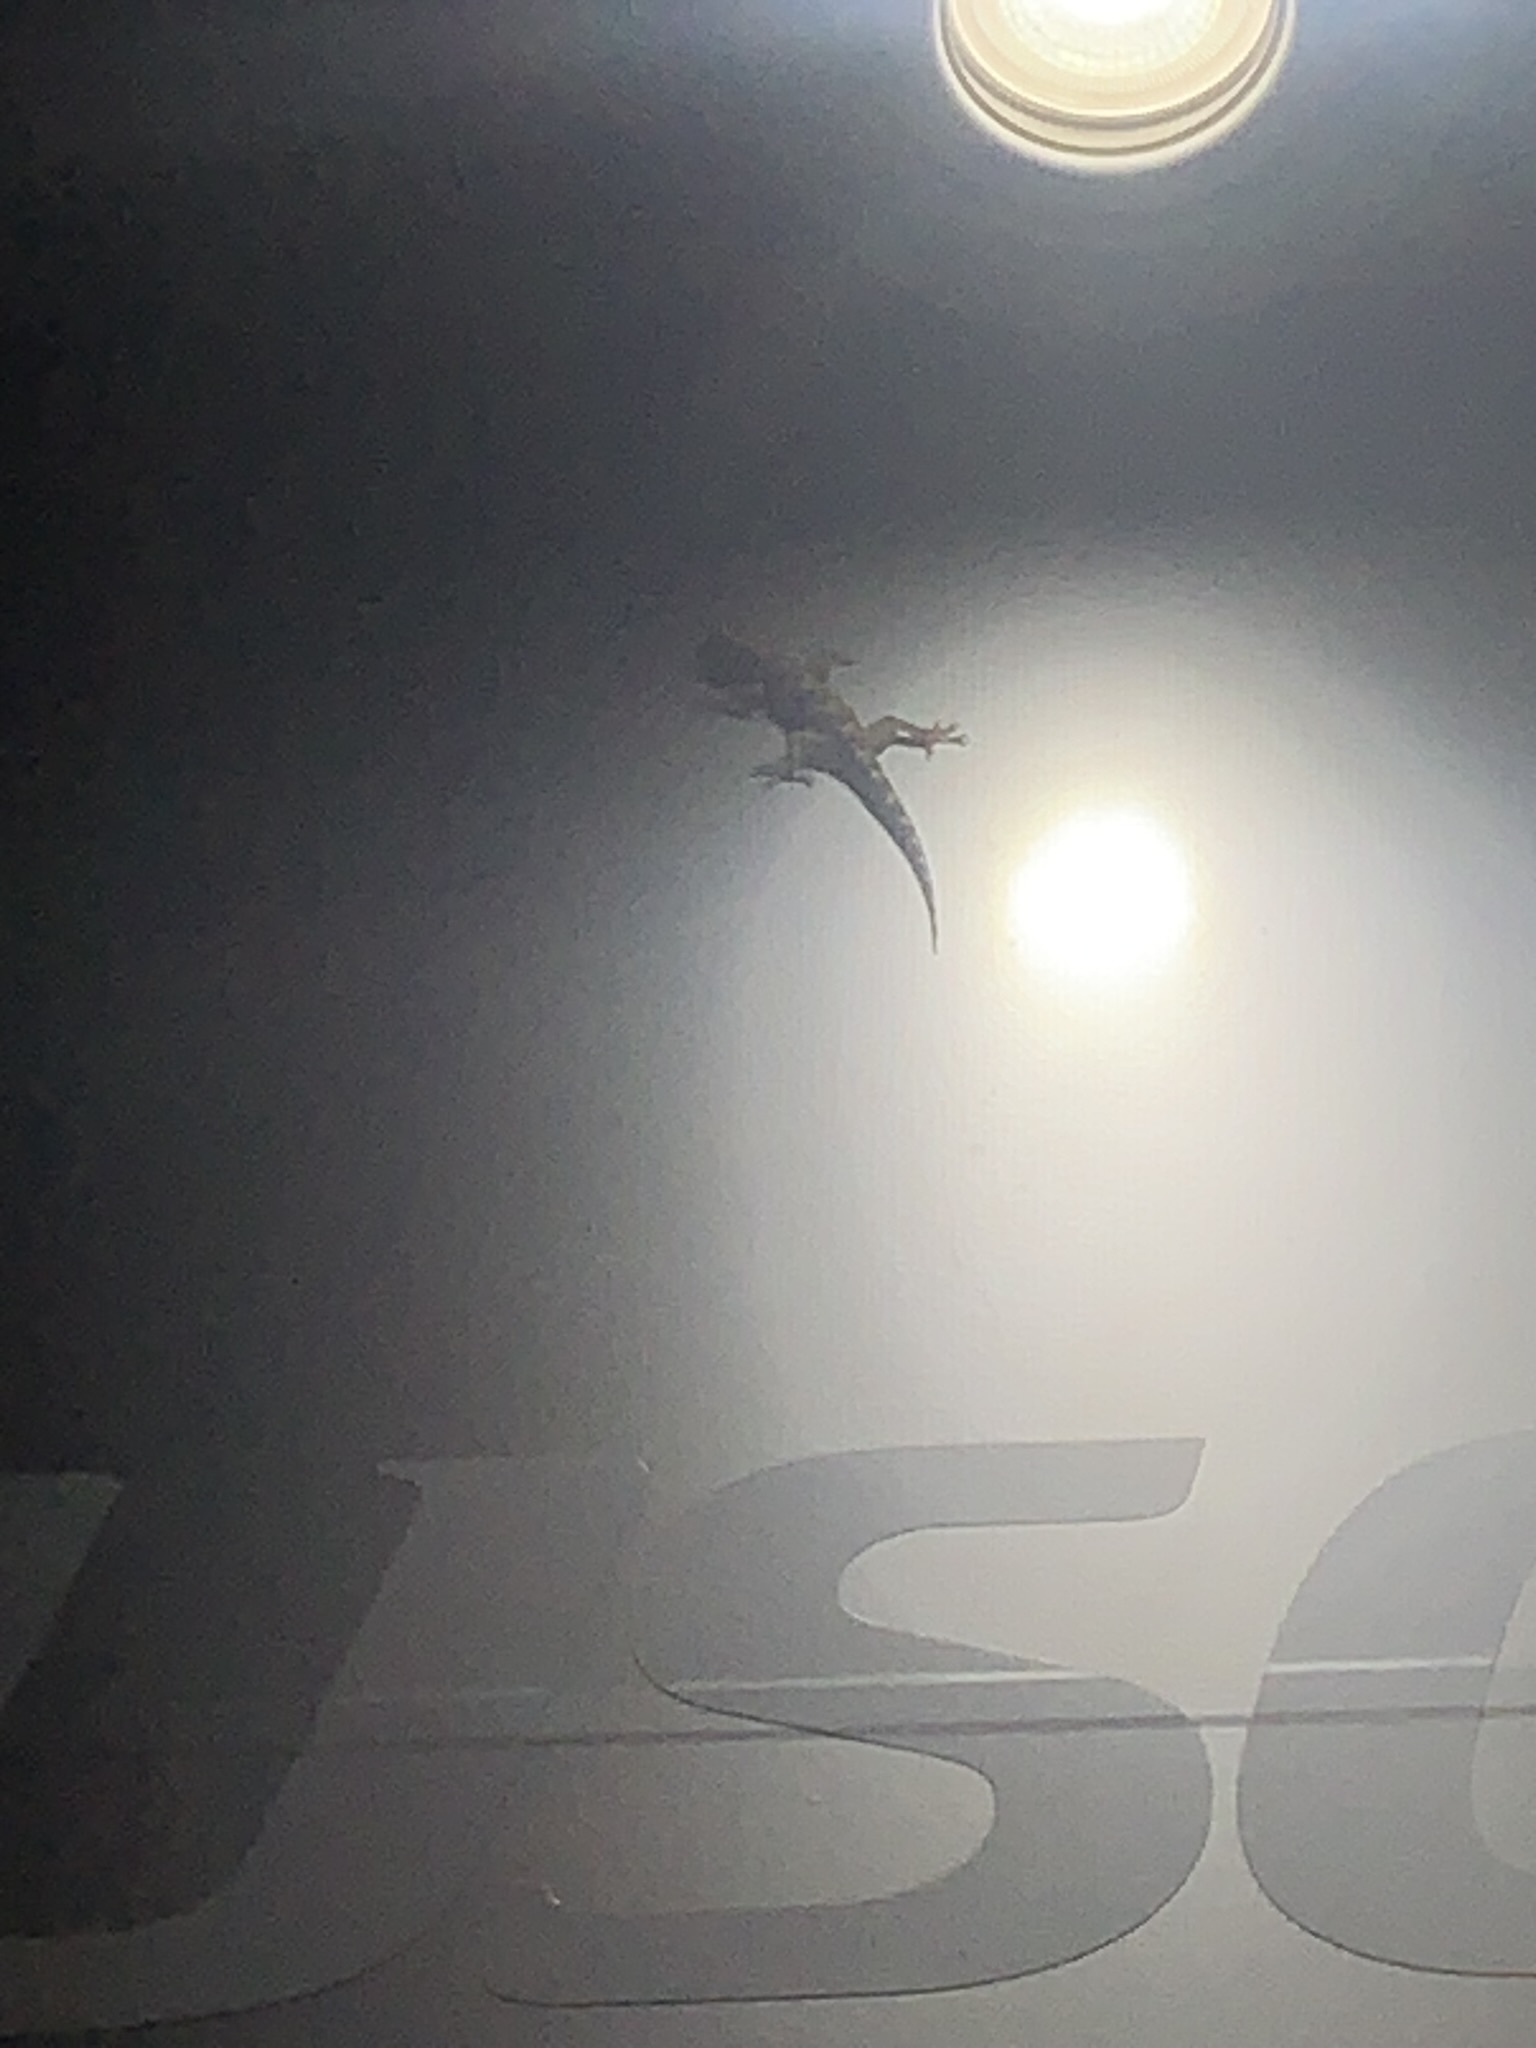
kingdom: Animalia
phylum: Chordata
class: Squamata
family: Gekkonidae
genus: Hemidactylus
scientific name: Hemidactylus mabouia
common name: House gecko
